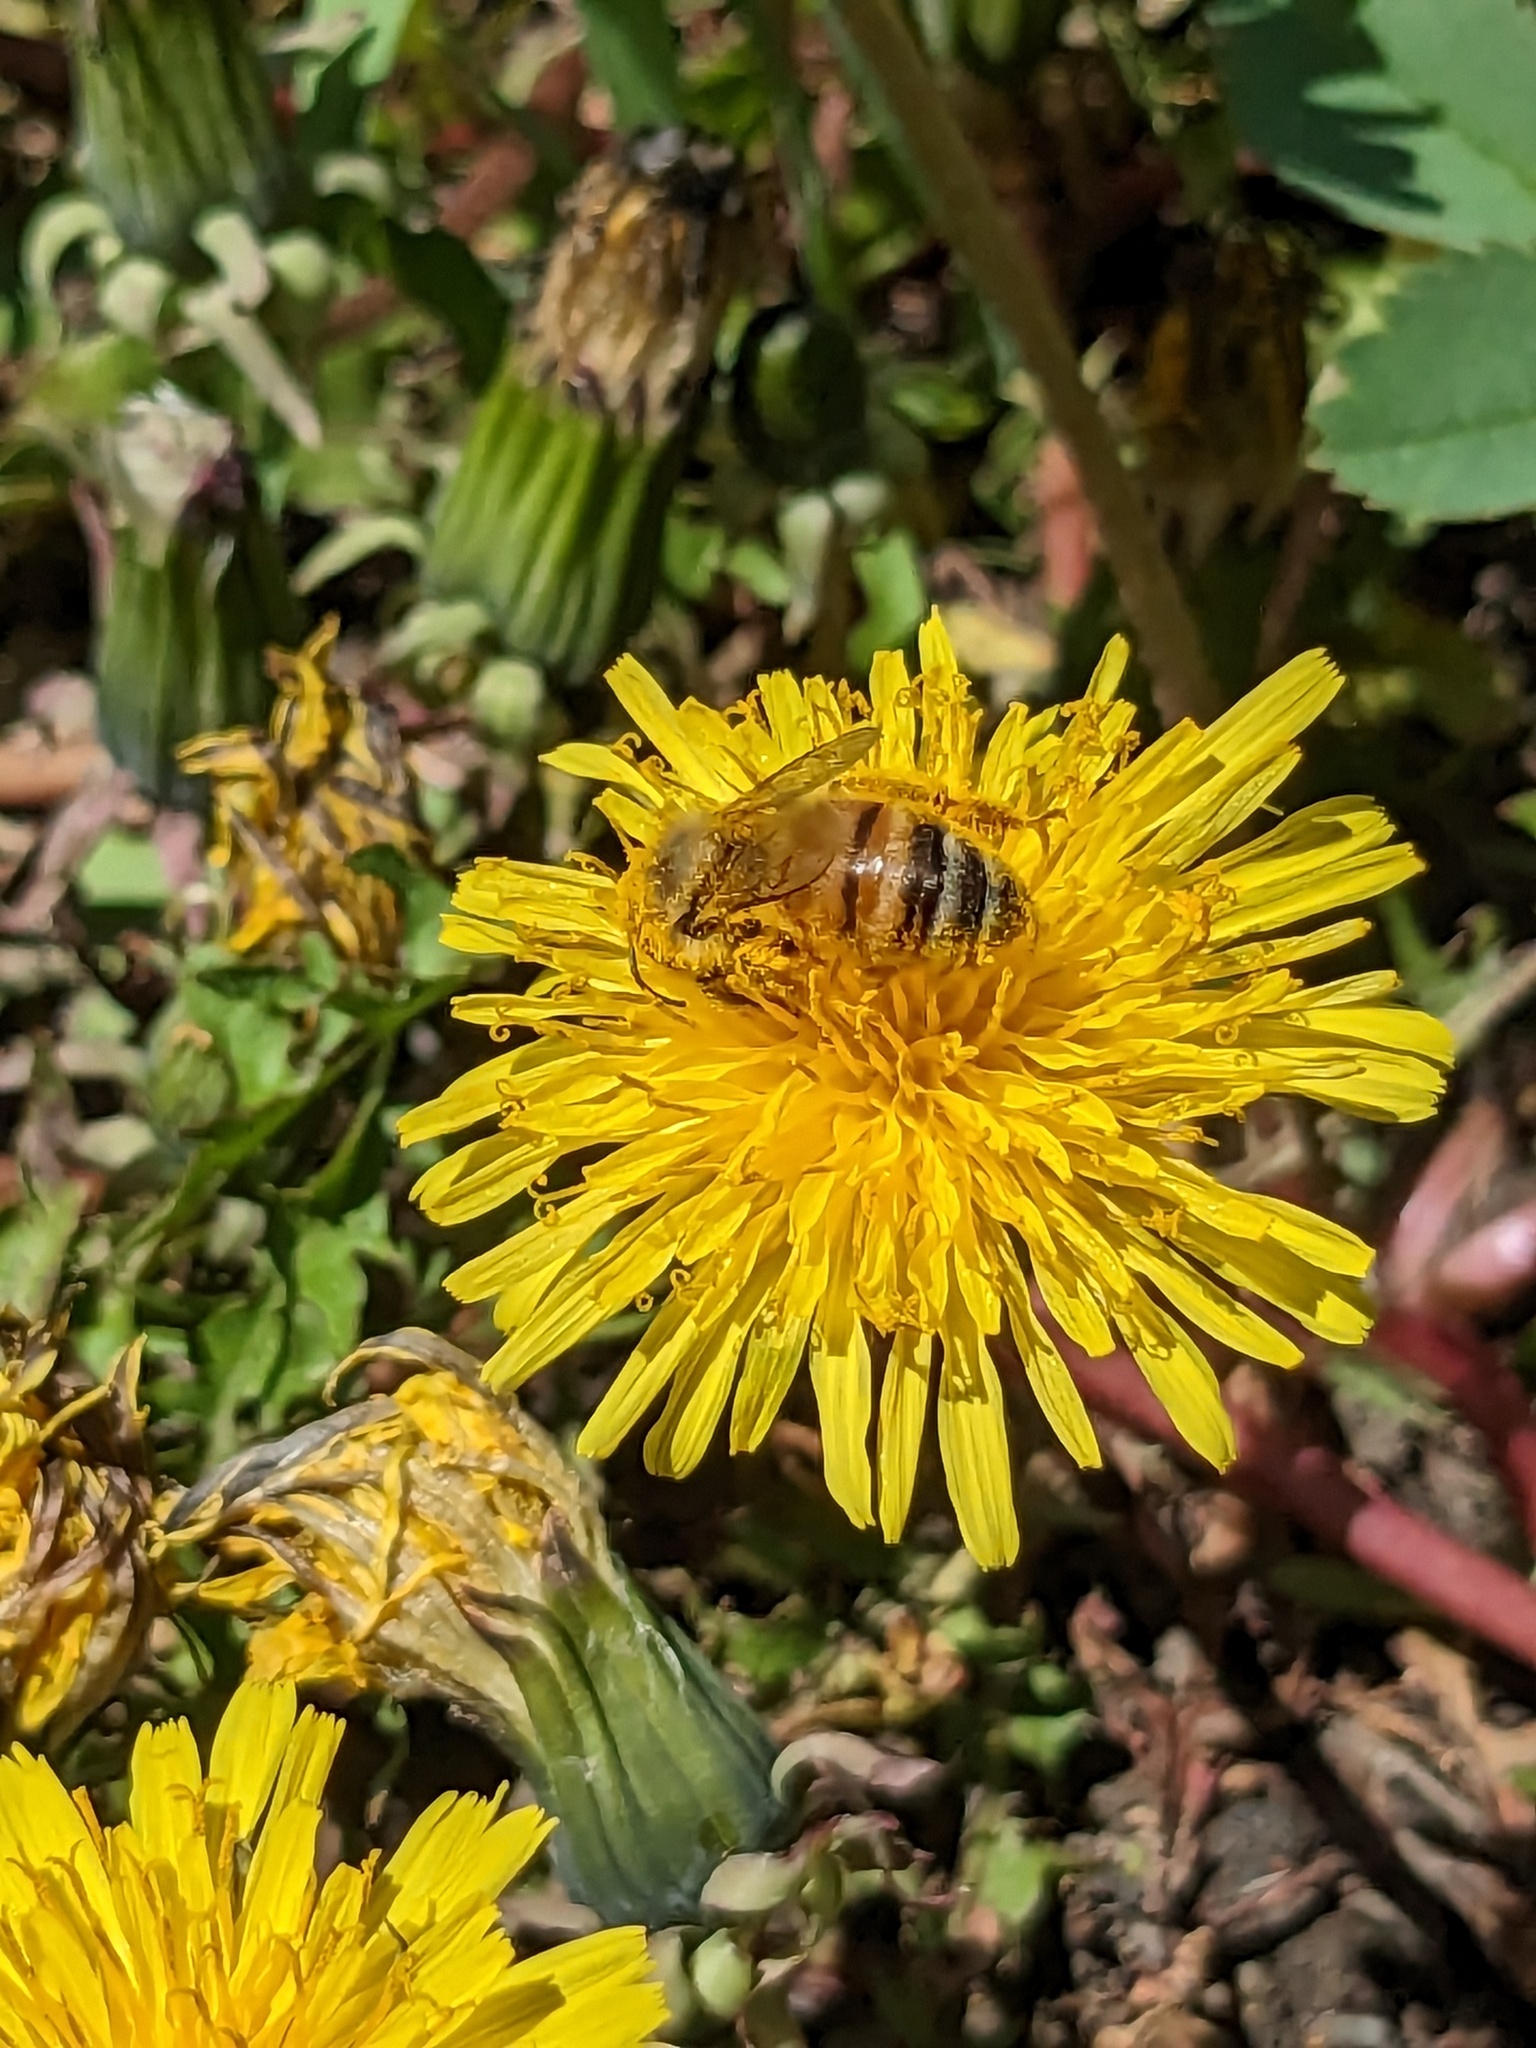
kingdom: Animalia
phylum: Arthropoda
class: Insecta
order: Hymenoptera
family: Apidae
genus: Apis
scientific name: Apis mellifera
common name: Honey bee
